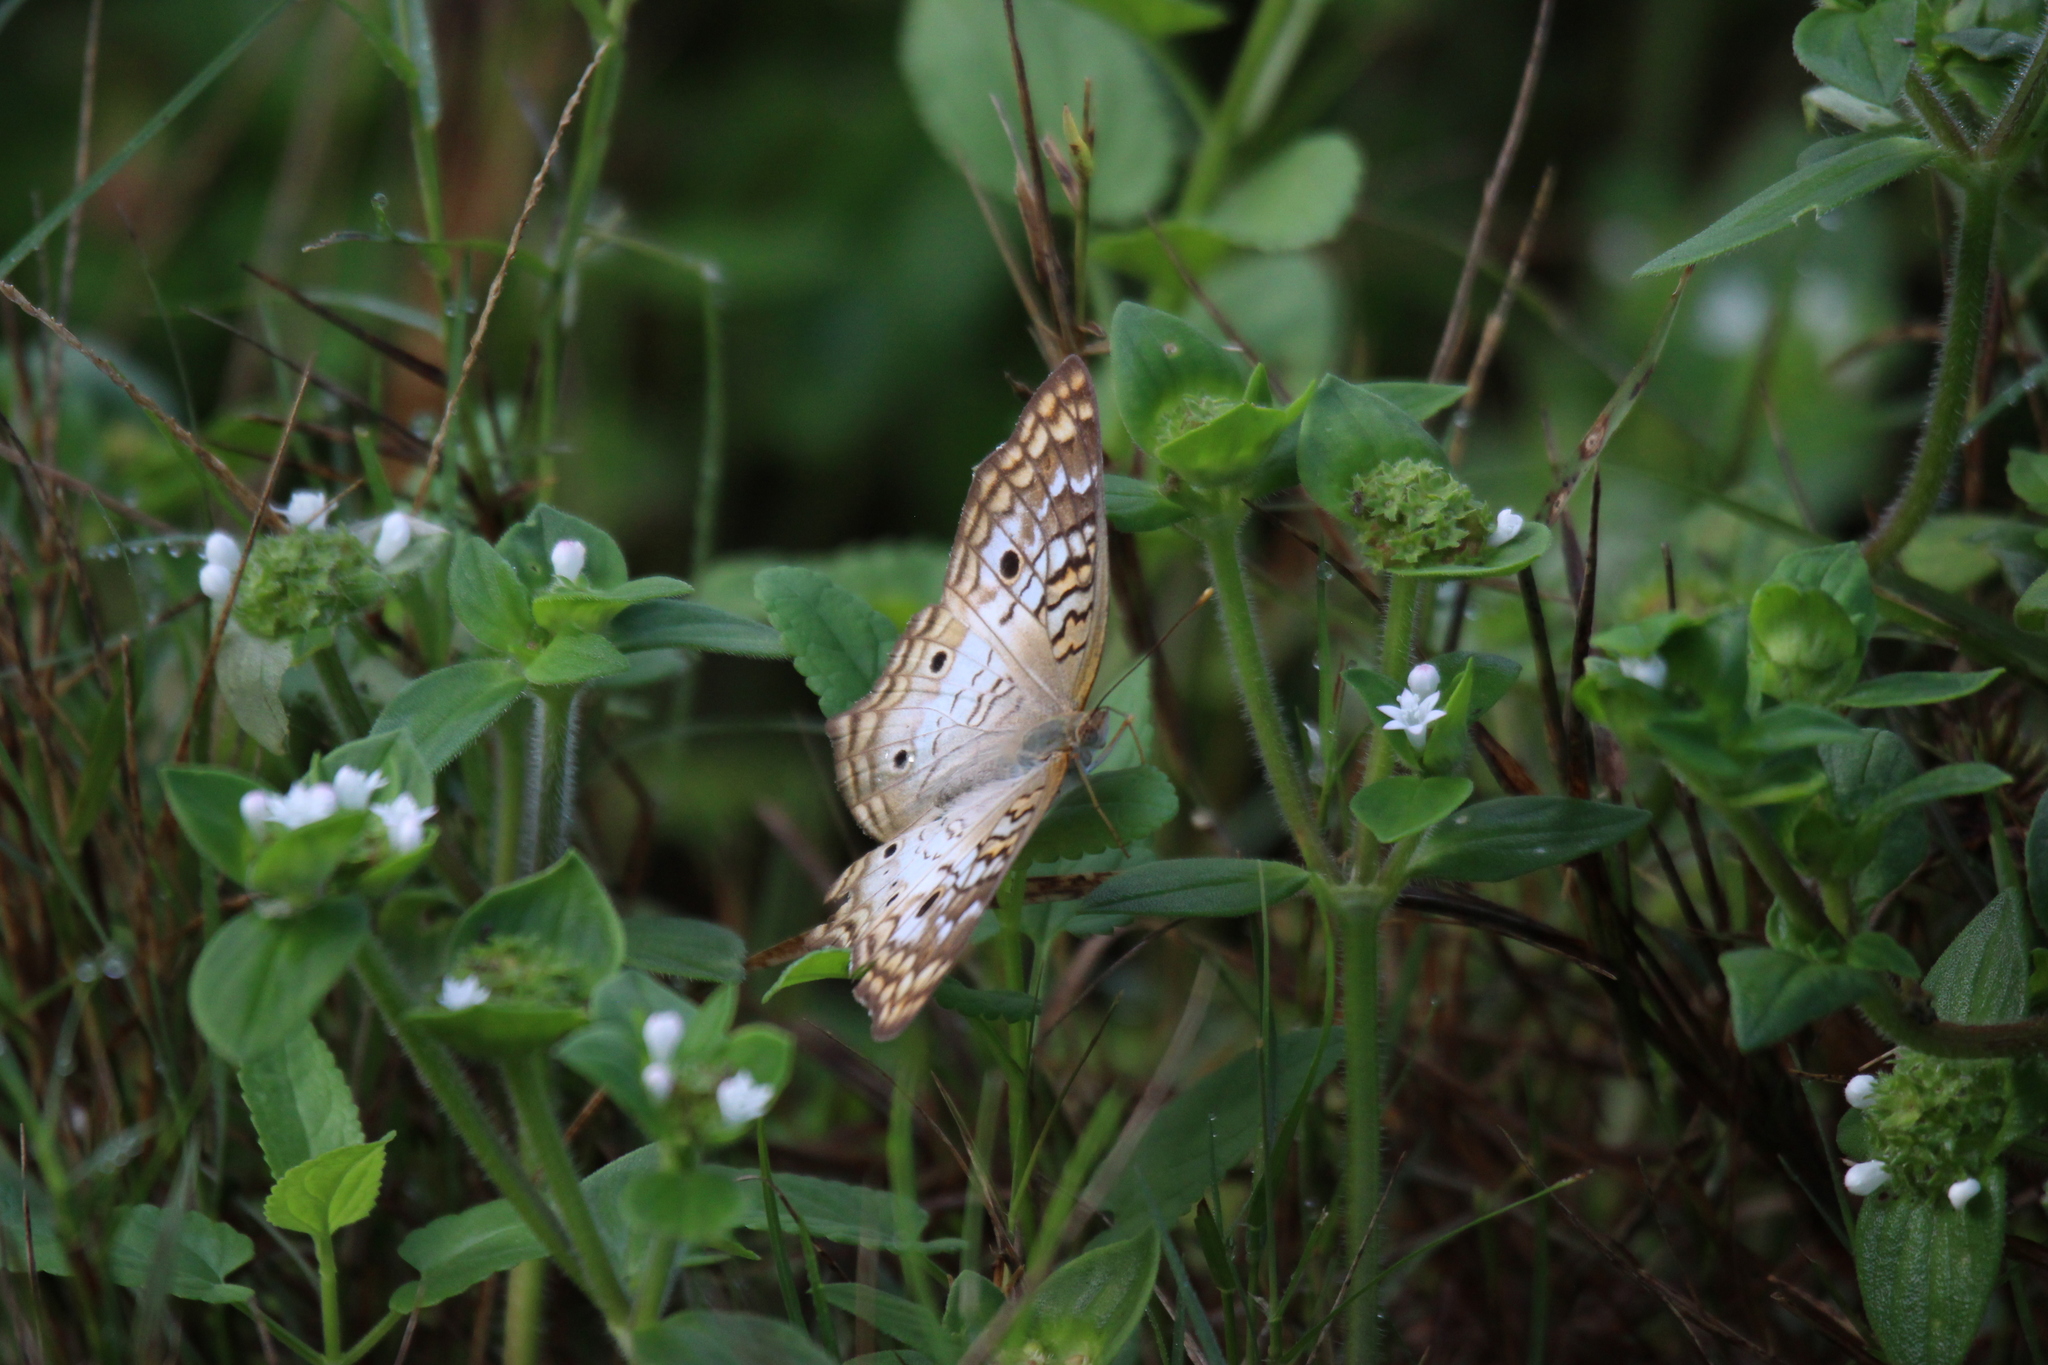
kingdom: Animalia
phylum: Arthropoda
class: Insecta
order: Lepidoptera
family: Nymphalidae
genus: Anartia
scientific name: Anartia jatrophae
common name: White peacock
